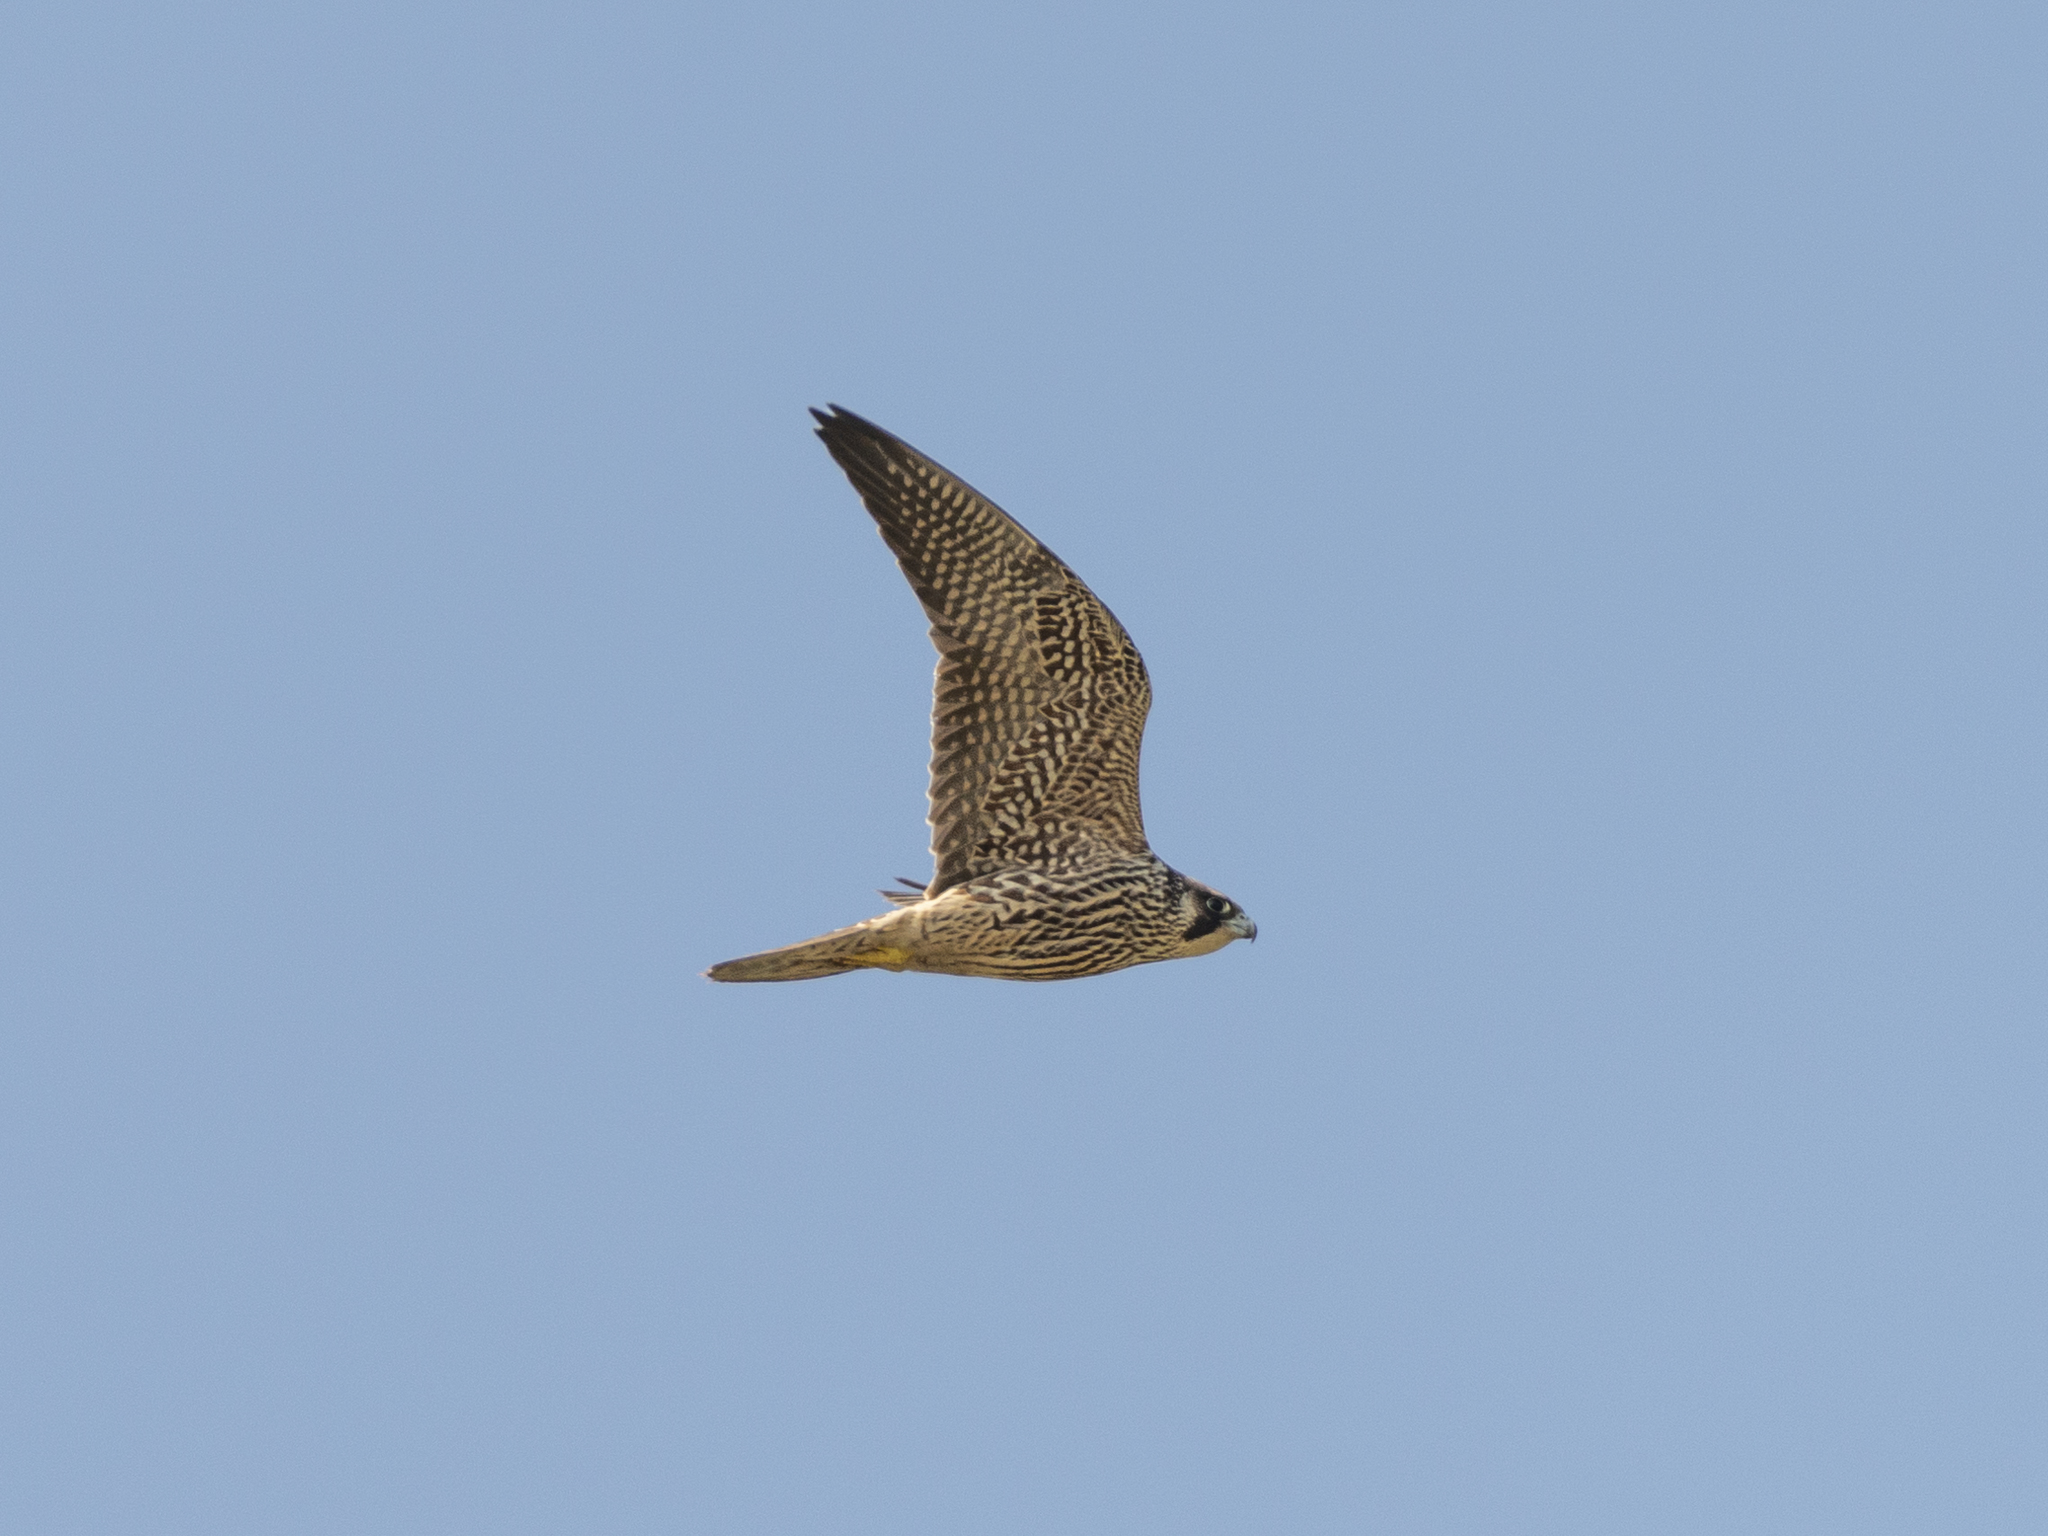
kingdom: Animalia
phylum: Chordata
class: Aves
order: Falconiformes
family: Falconidae
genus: Falco
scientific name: Falco peregrinus
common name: Peregrine falcon
